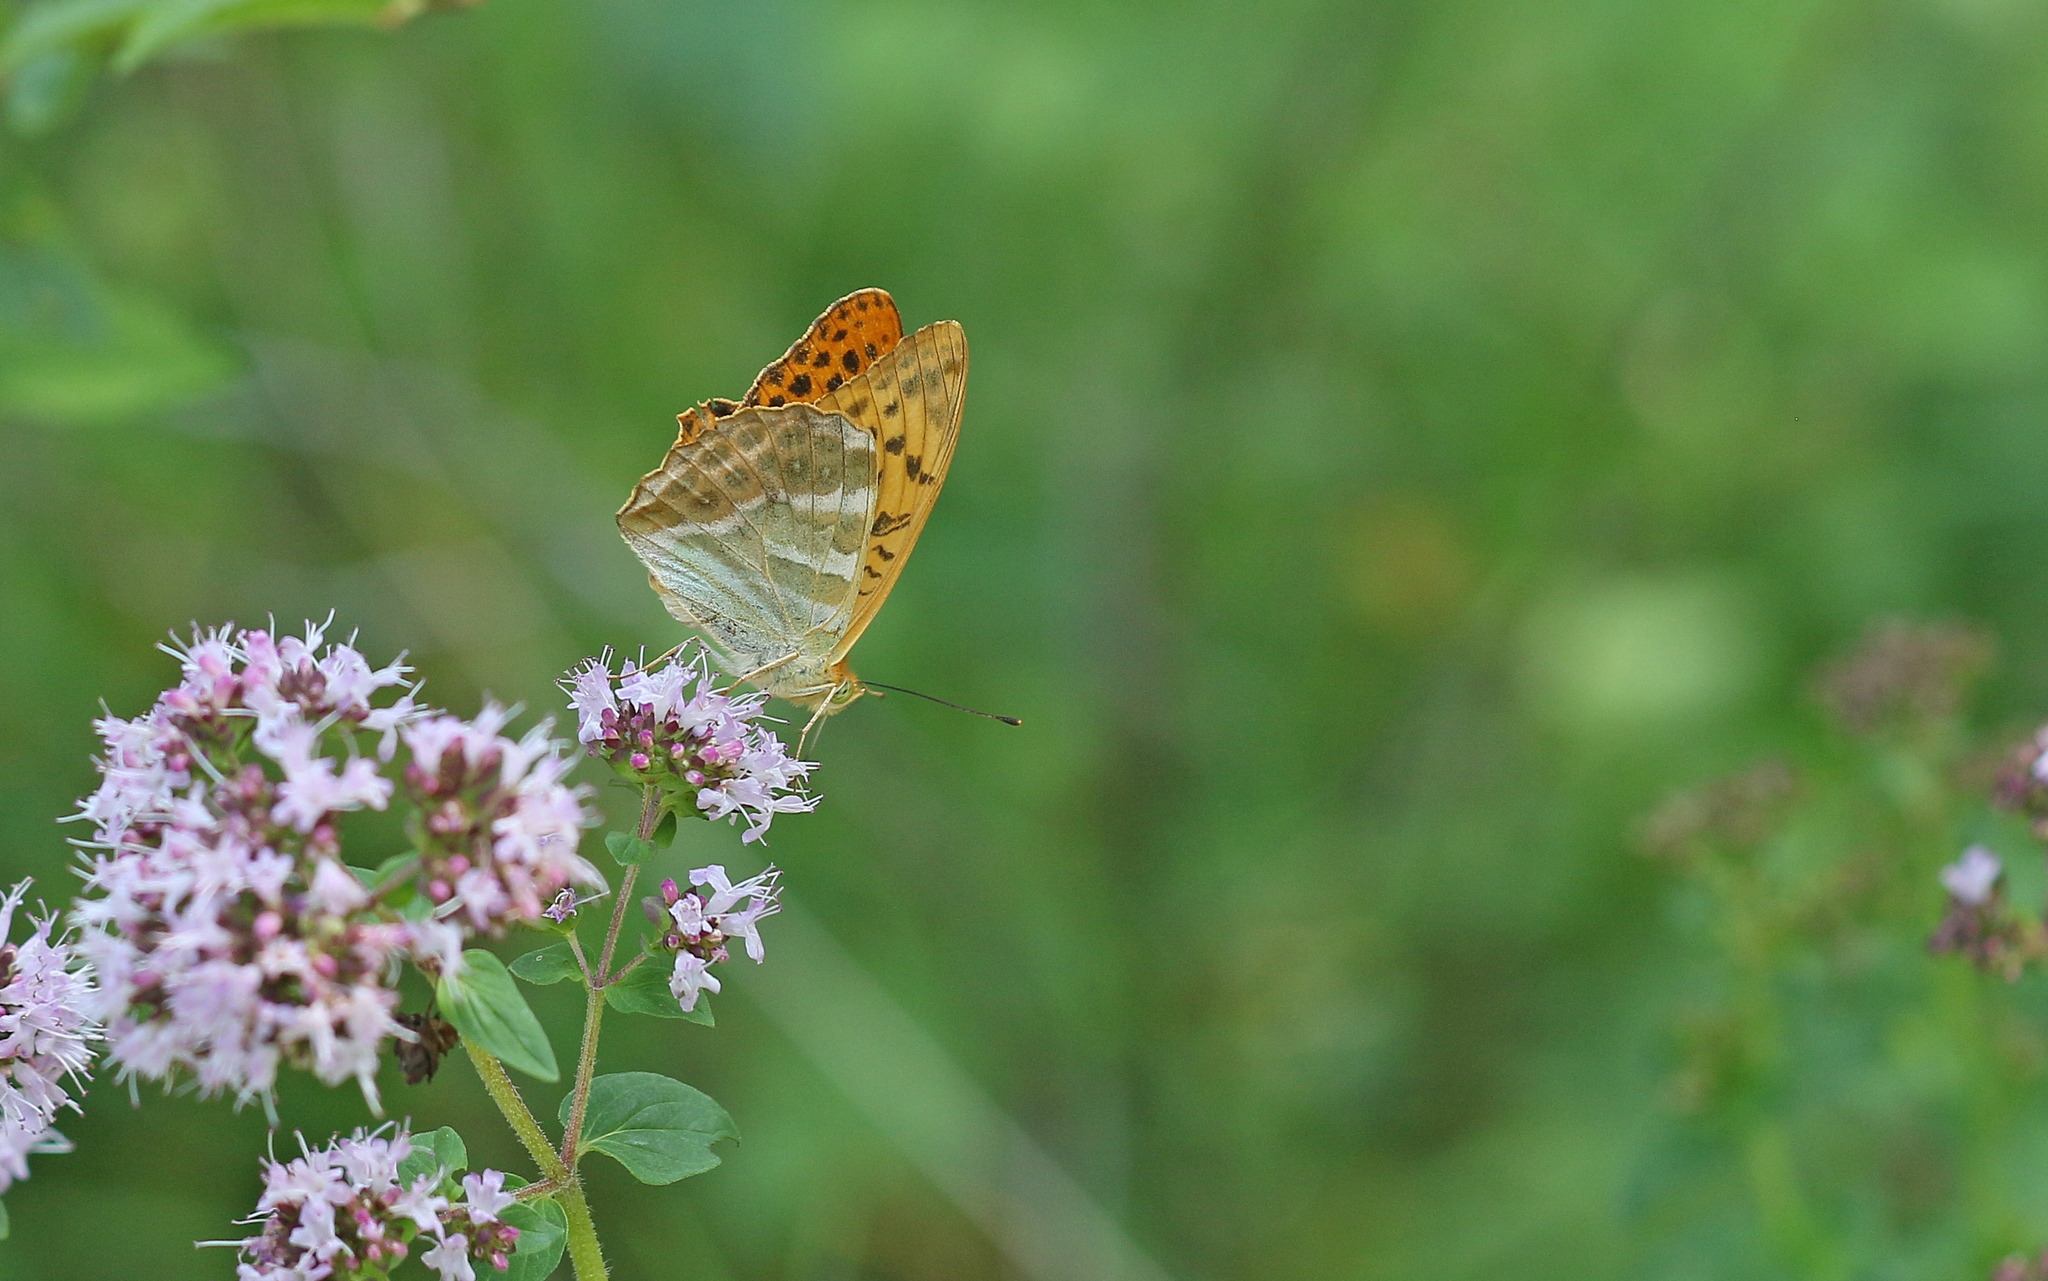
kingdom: Animalia
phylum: Arthropoda
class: Insecta
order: Lepidoptera
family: Nymphalidae
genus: Argynnis
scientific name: Argynnis paphia
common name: Silver-washed fritillary
